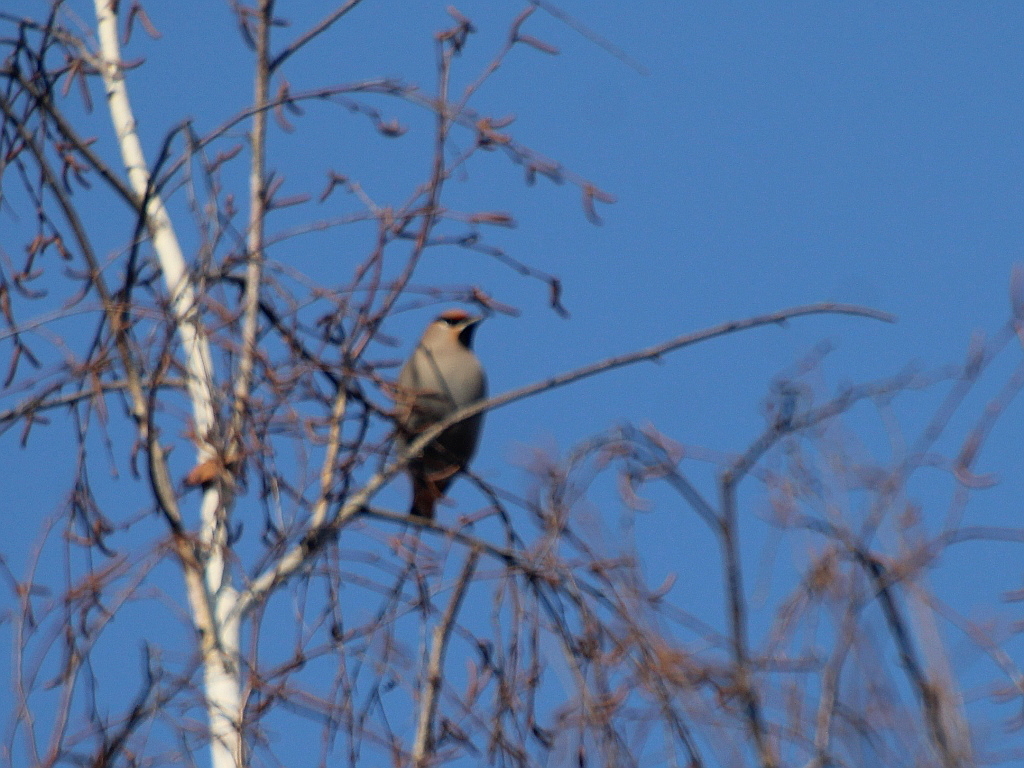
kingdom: Animalia
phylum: Chordata
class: Aves
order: Passeriformes
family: Bombycillidae
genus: Bombycilla
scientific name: Bombycilla garrulus
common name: Bohemian waxwing
